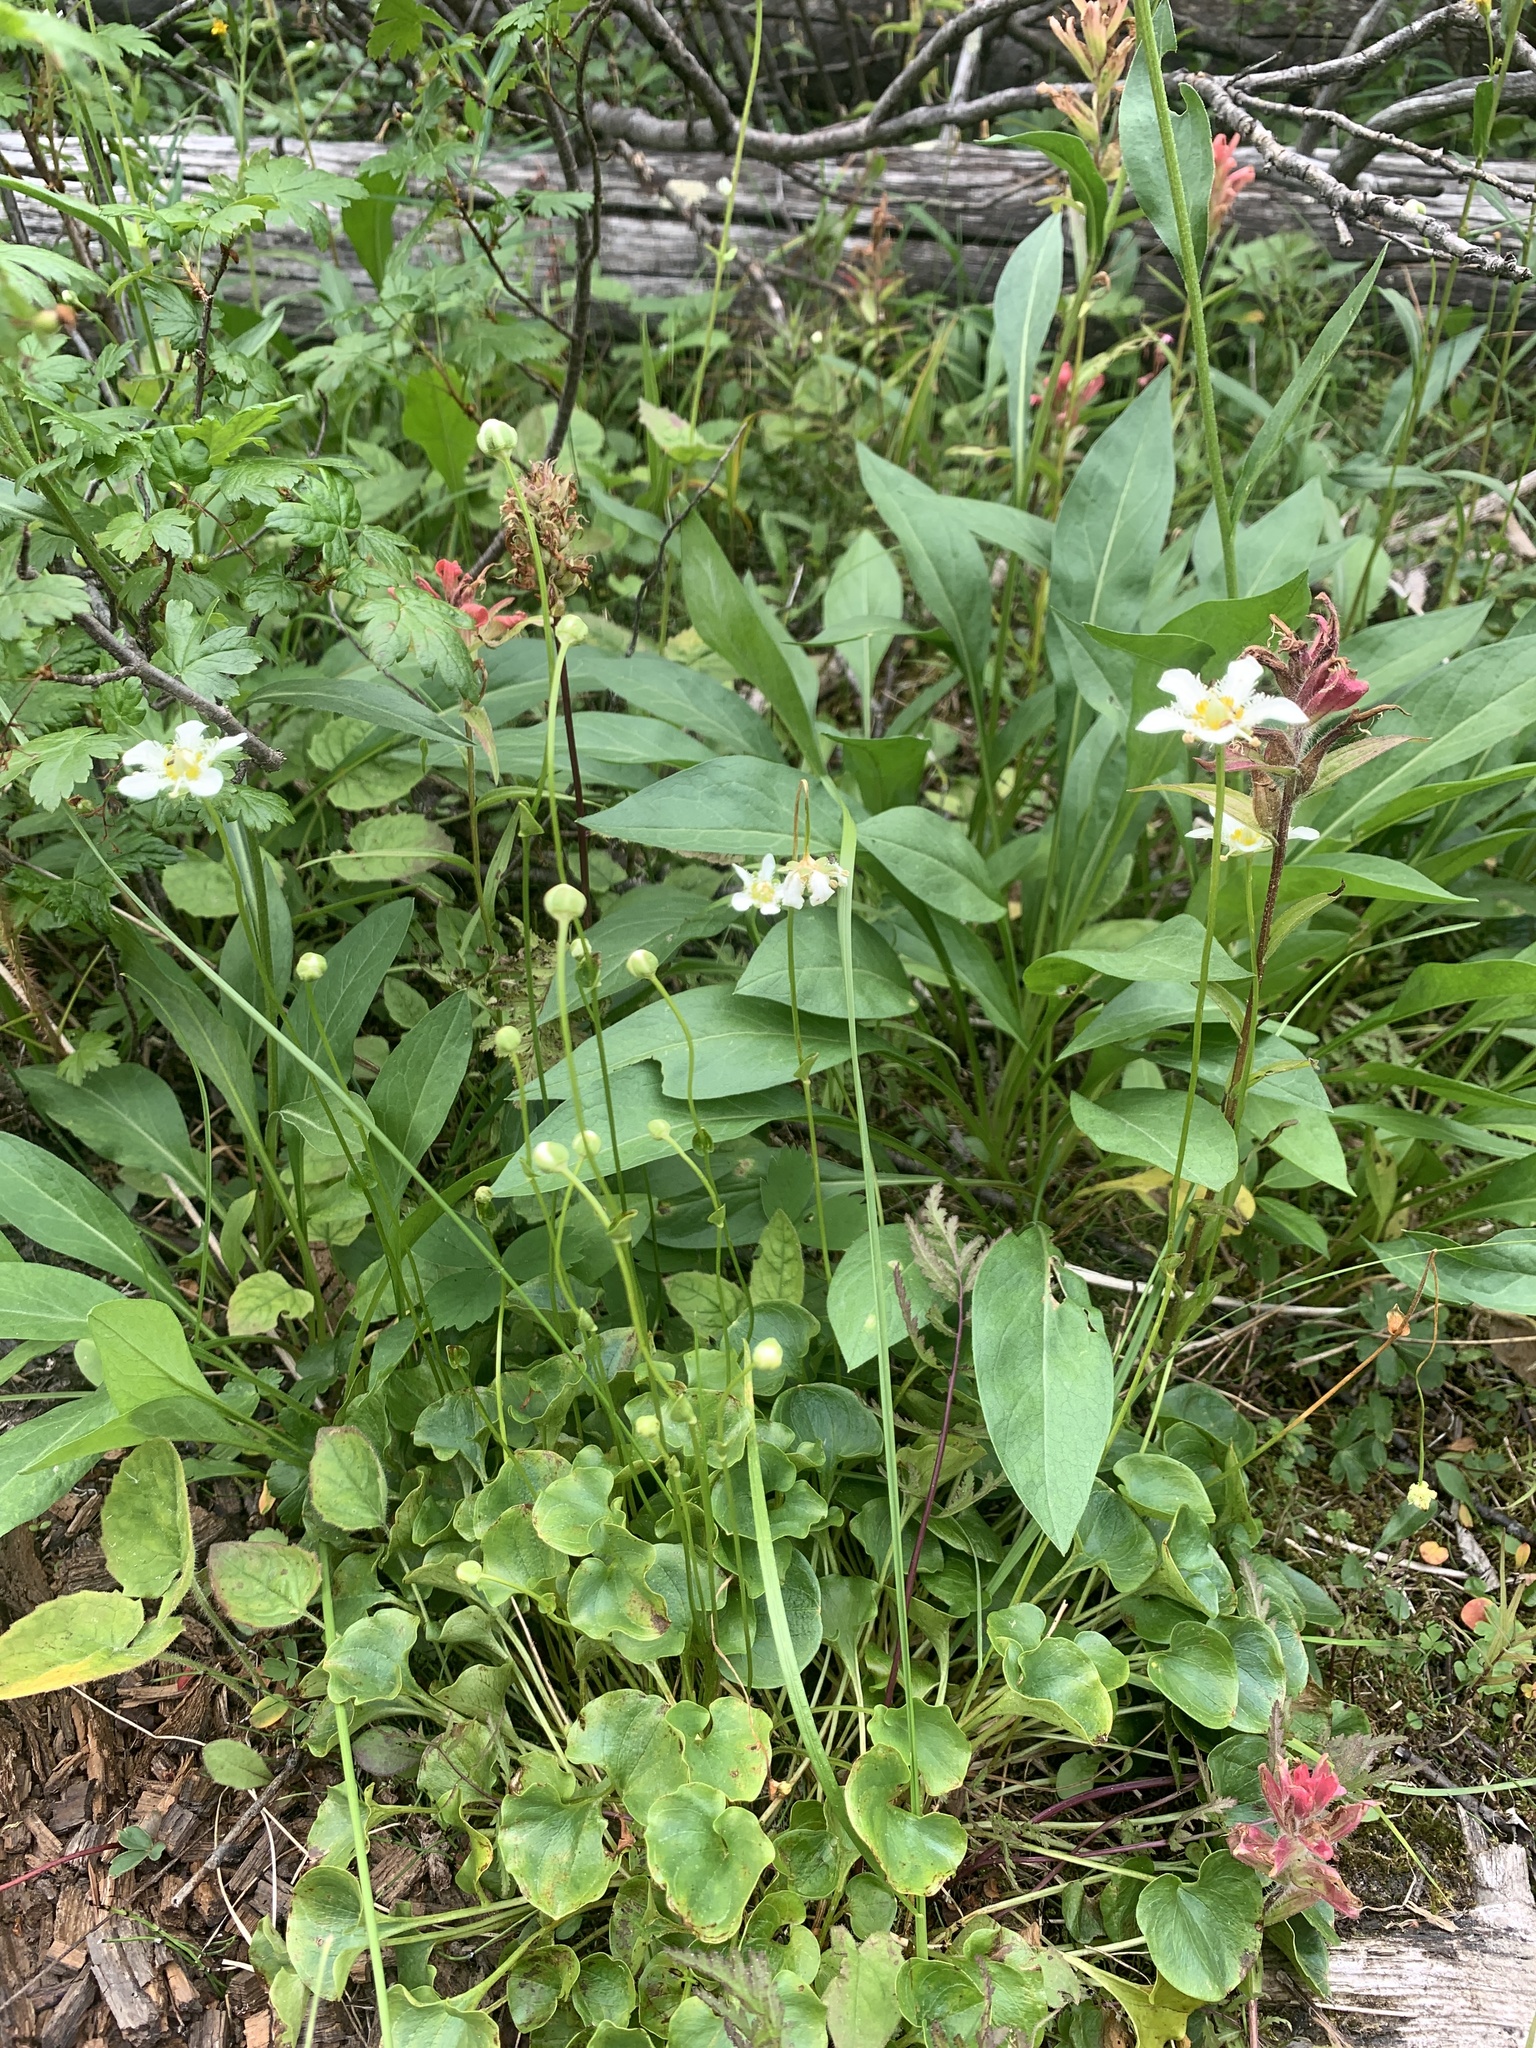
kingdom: Plantae
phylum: Tracheophyta
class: Magnoliopsida
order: Celastrales
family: Parnassiaceae
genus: Parnassia
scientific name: Parnassia fimbriata
